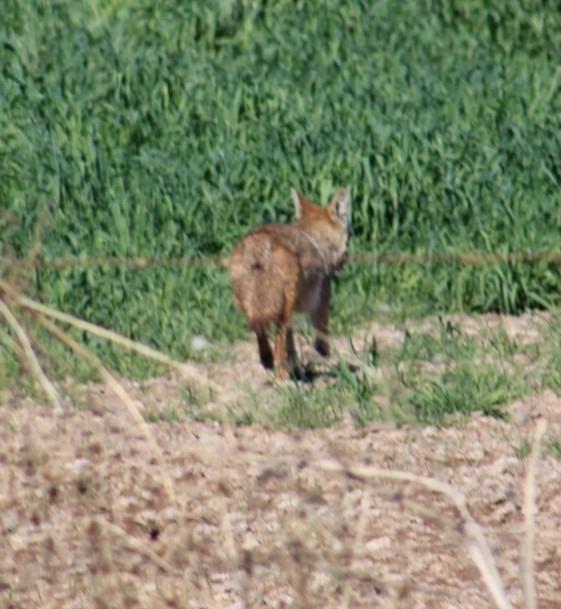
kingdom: Animalia
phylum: Chordata
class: Mammalia
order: Carnivora
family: Canidae
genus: Canis
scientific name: Canis latrans
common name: Coyote
